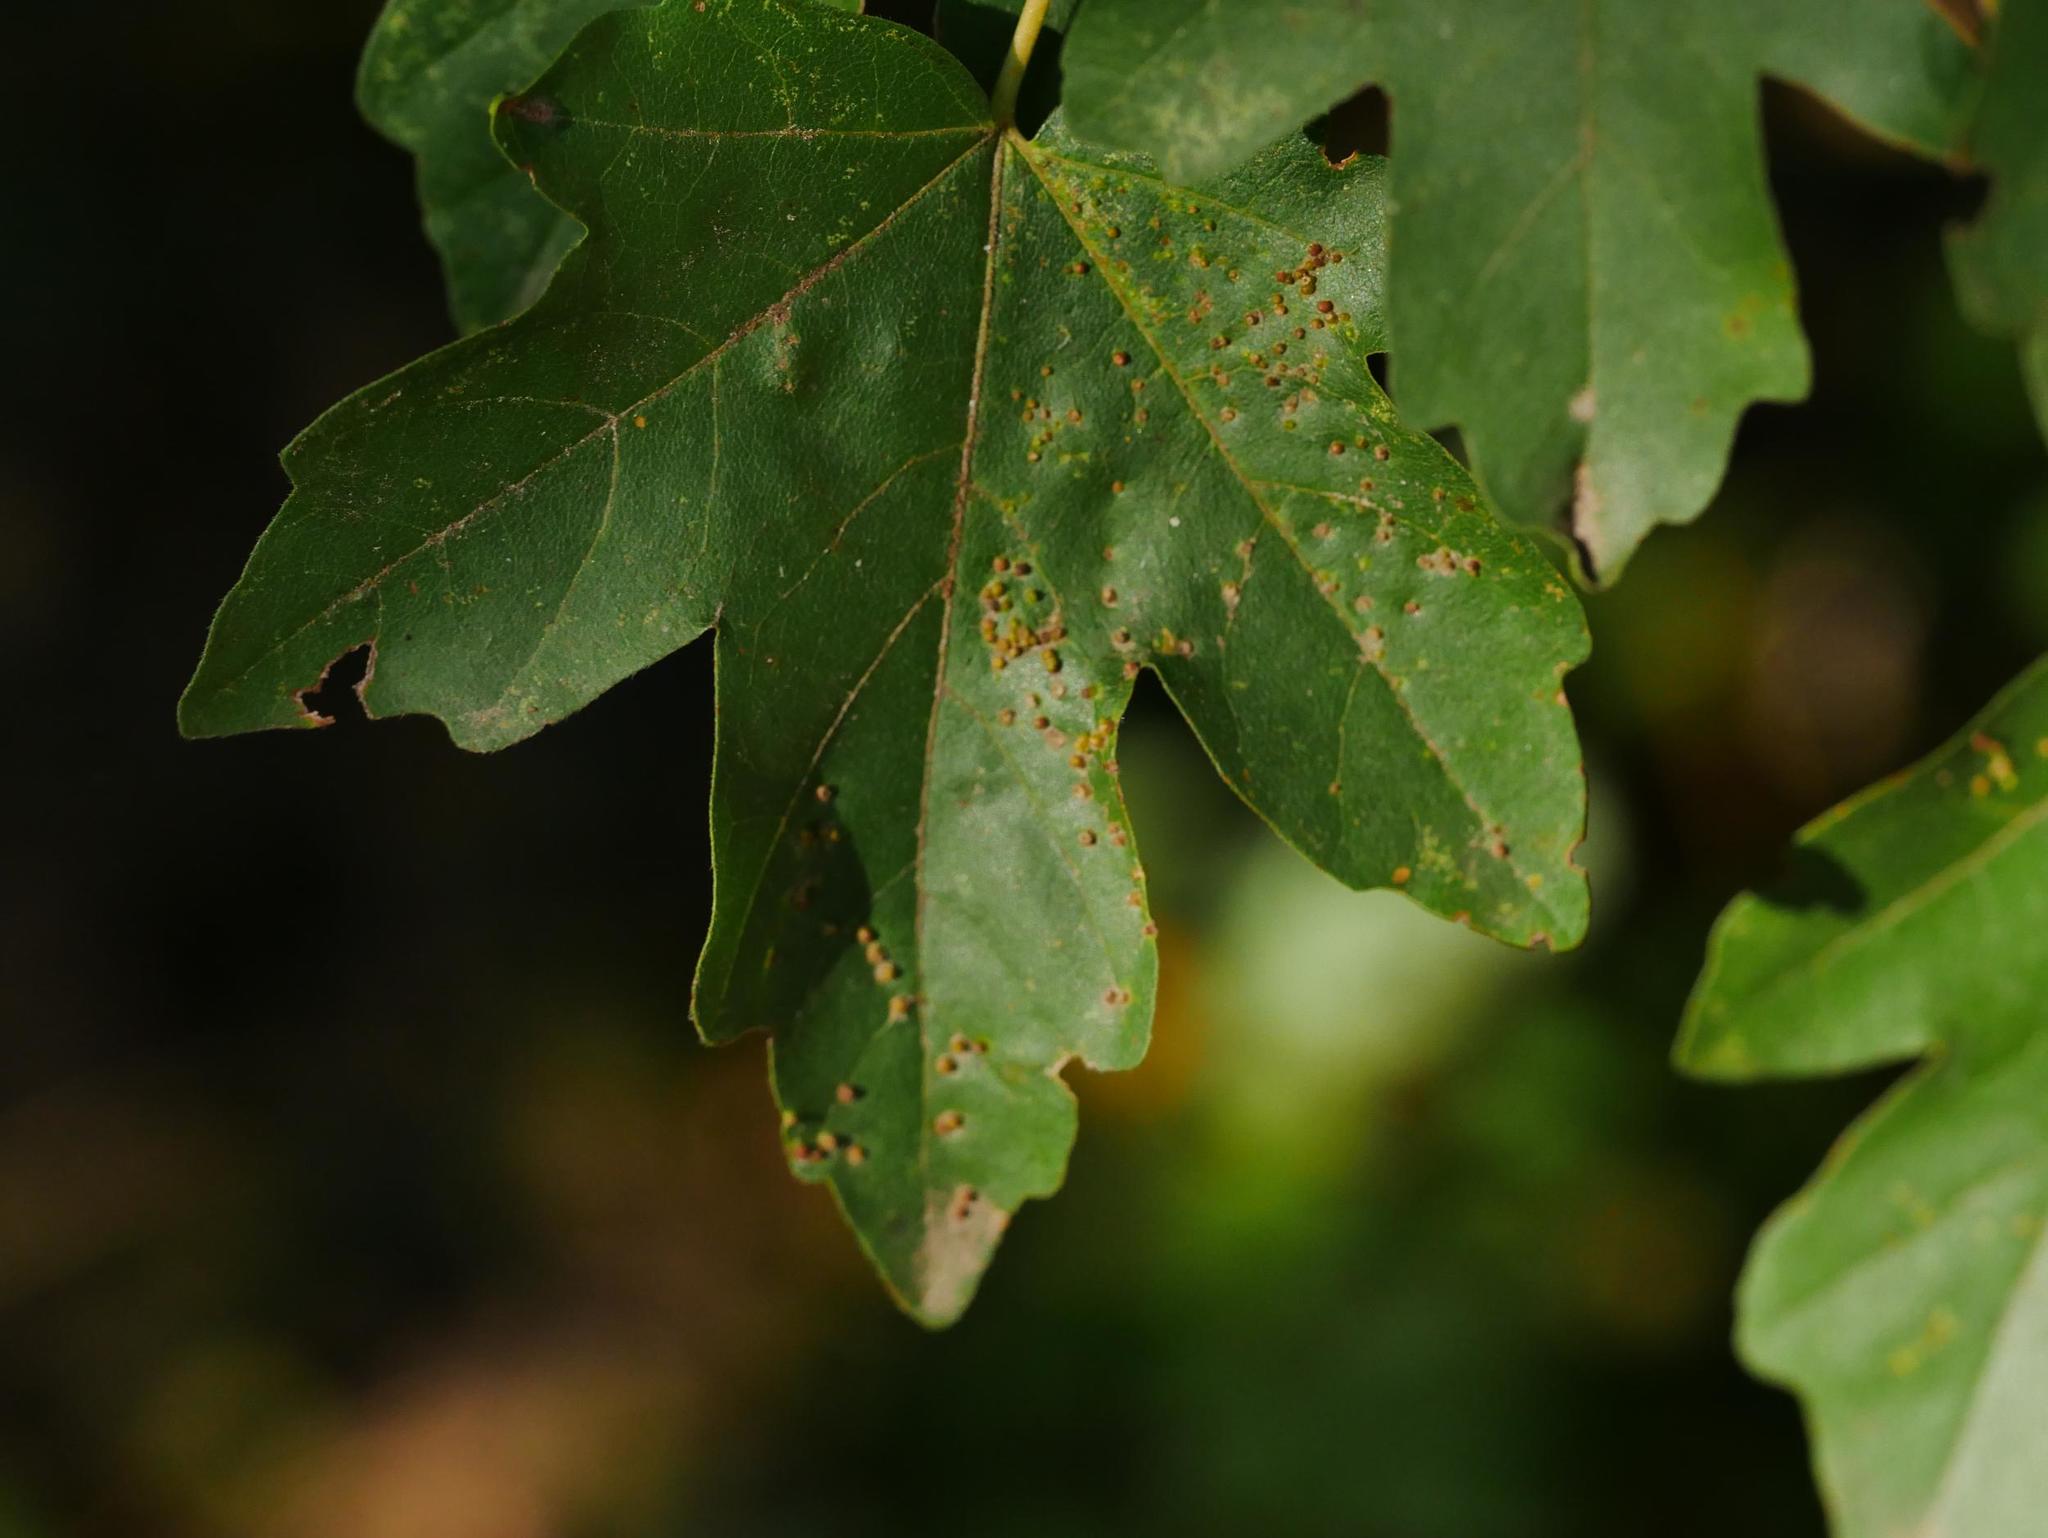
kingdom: Animalia
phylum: Arthropoda
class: Arachnida
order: Trombidiformes
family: Eriophyidae
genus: Aceria
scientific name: Aceria myriadeum
